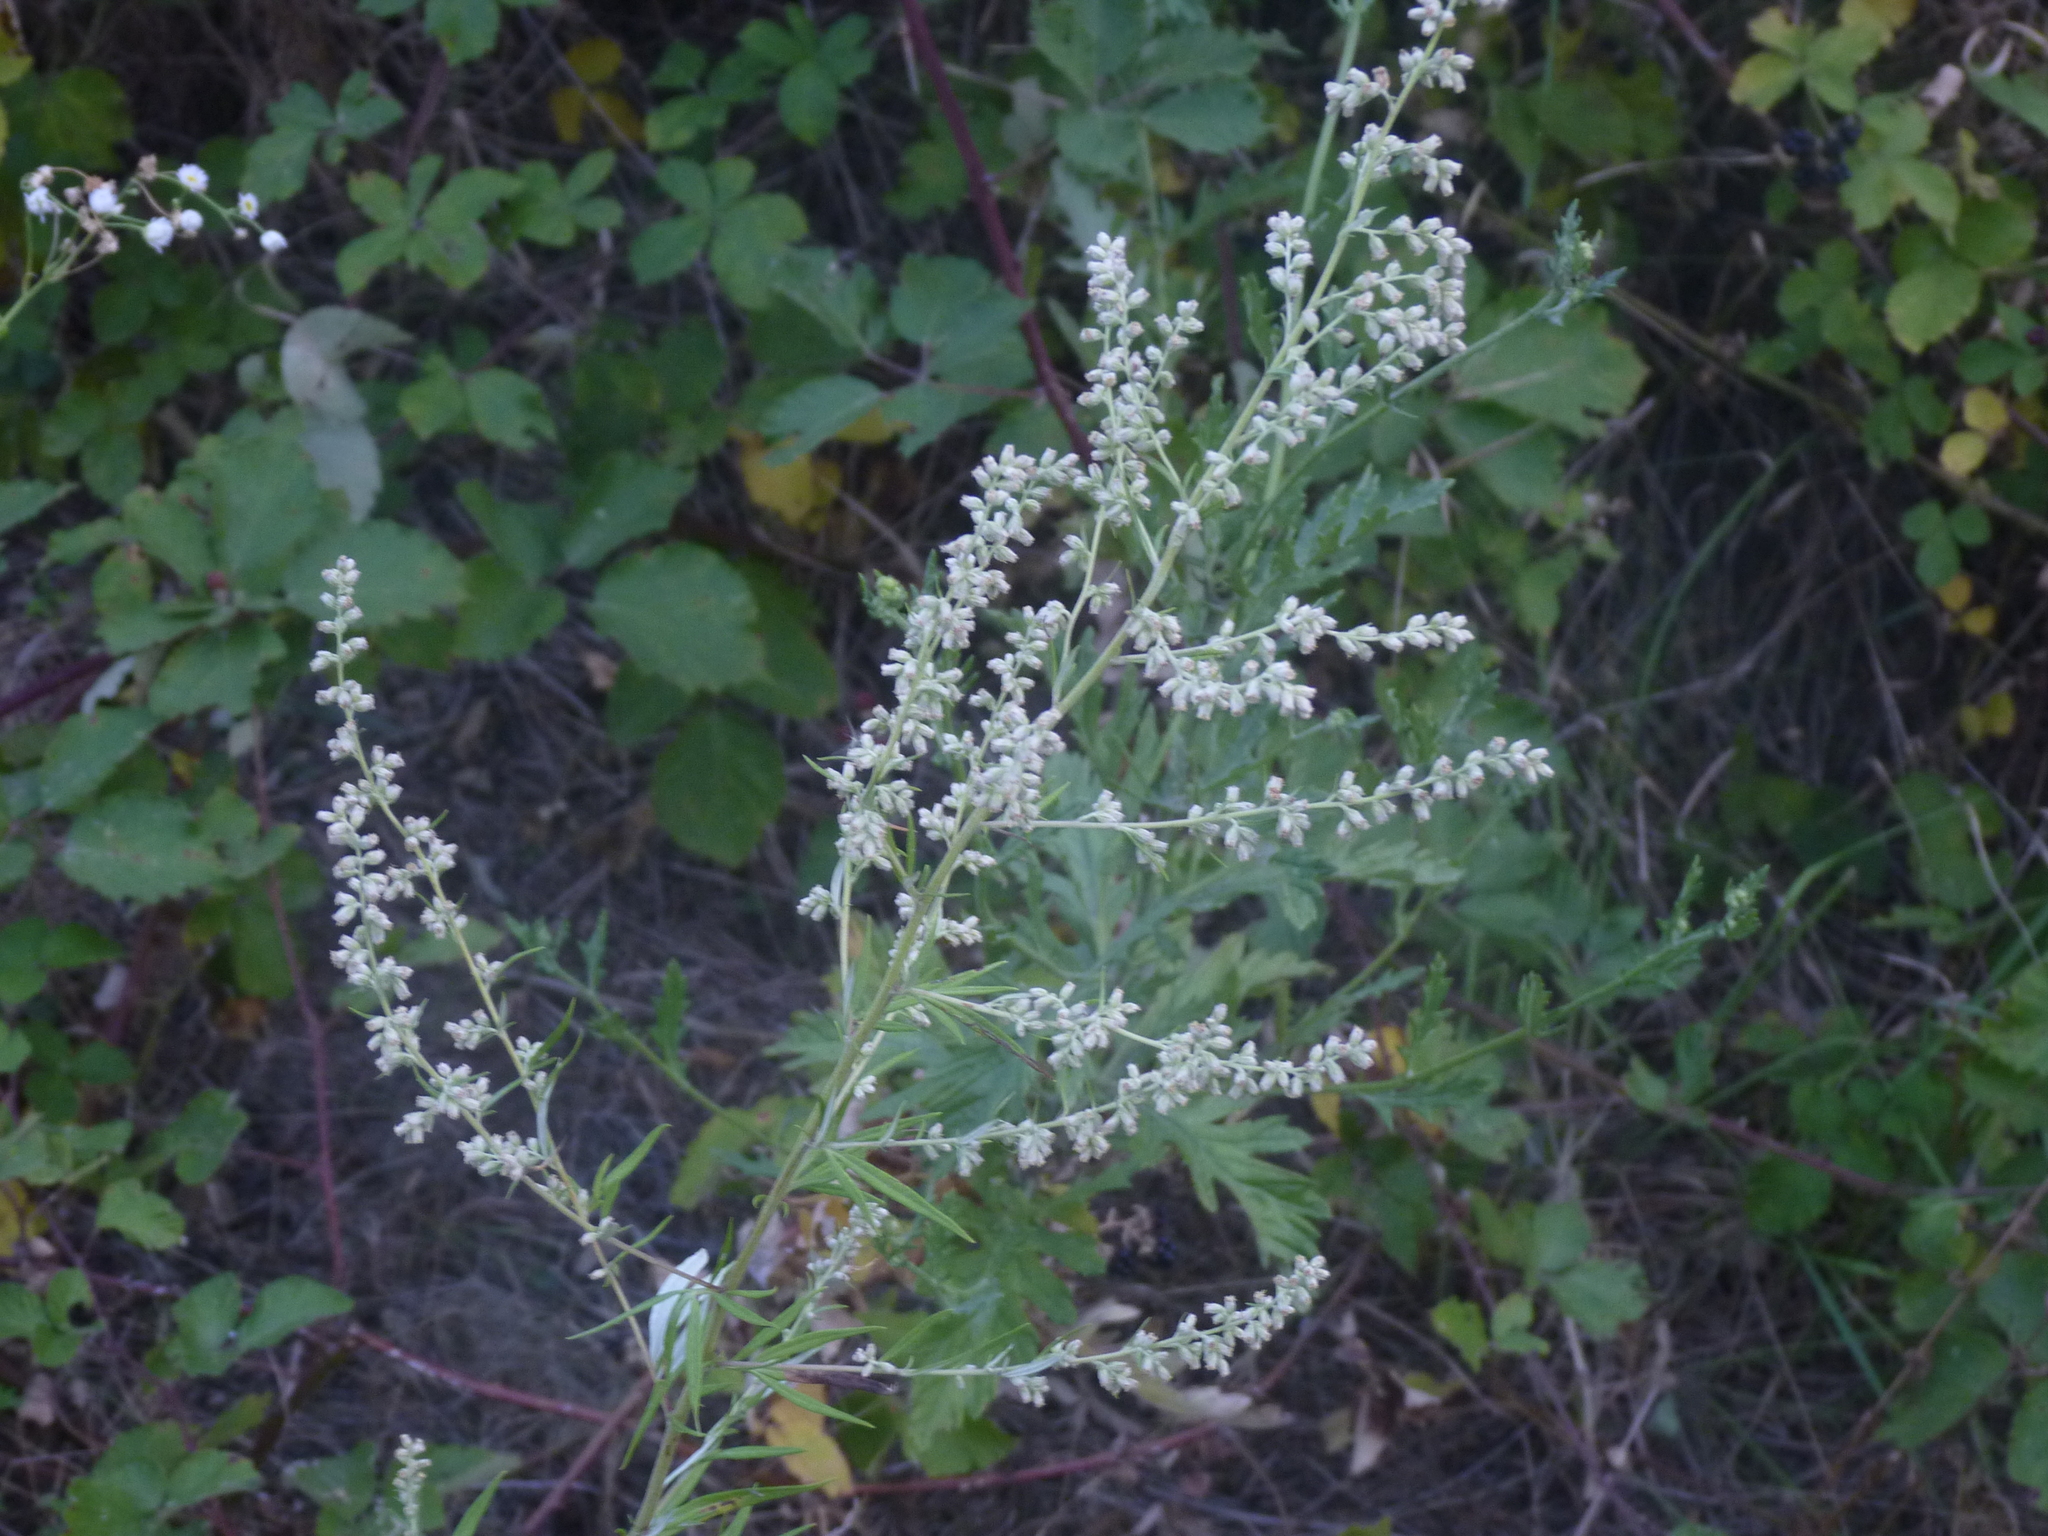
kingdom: Plantae
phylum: Tracheophyta
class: Magnoliopsida
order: Asterales
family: Asteraceae
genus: Artemisia
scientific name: Artemisia vulgaris
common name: Mugwort
